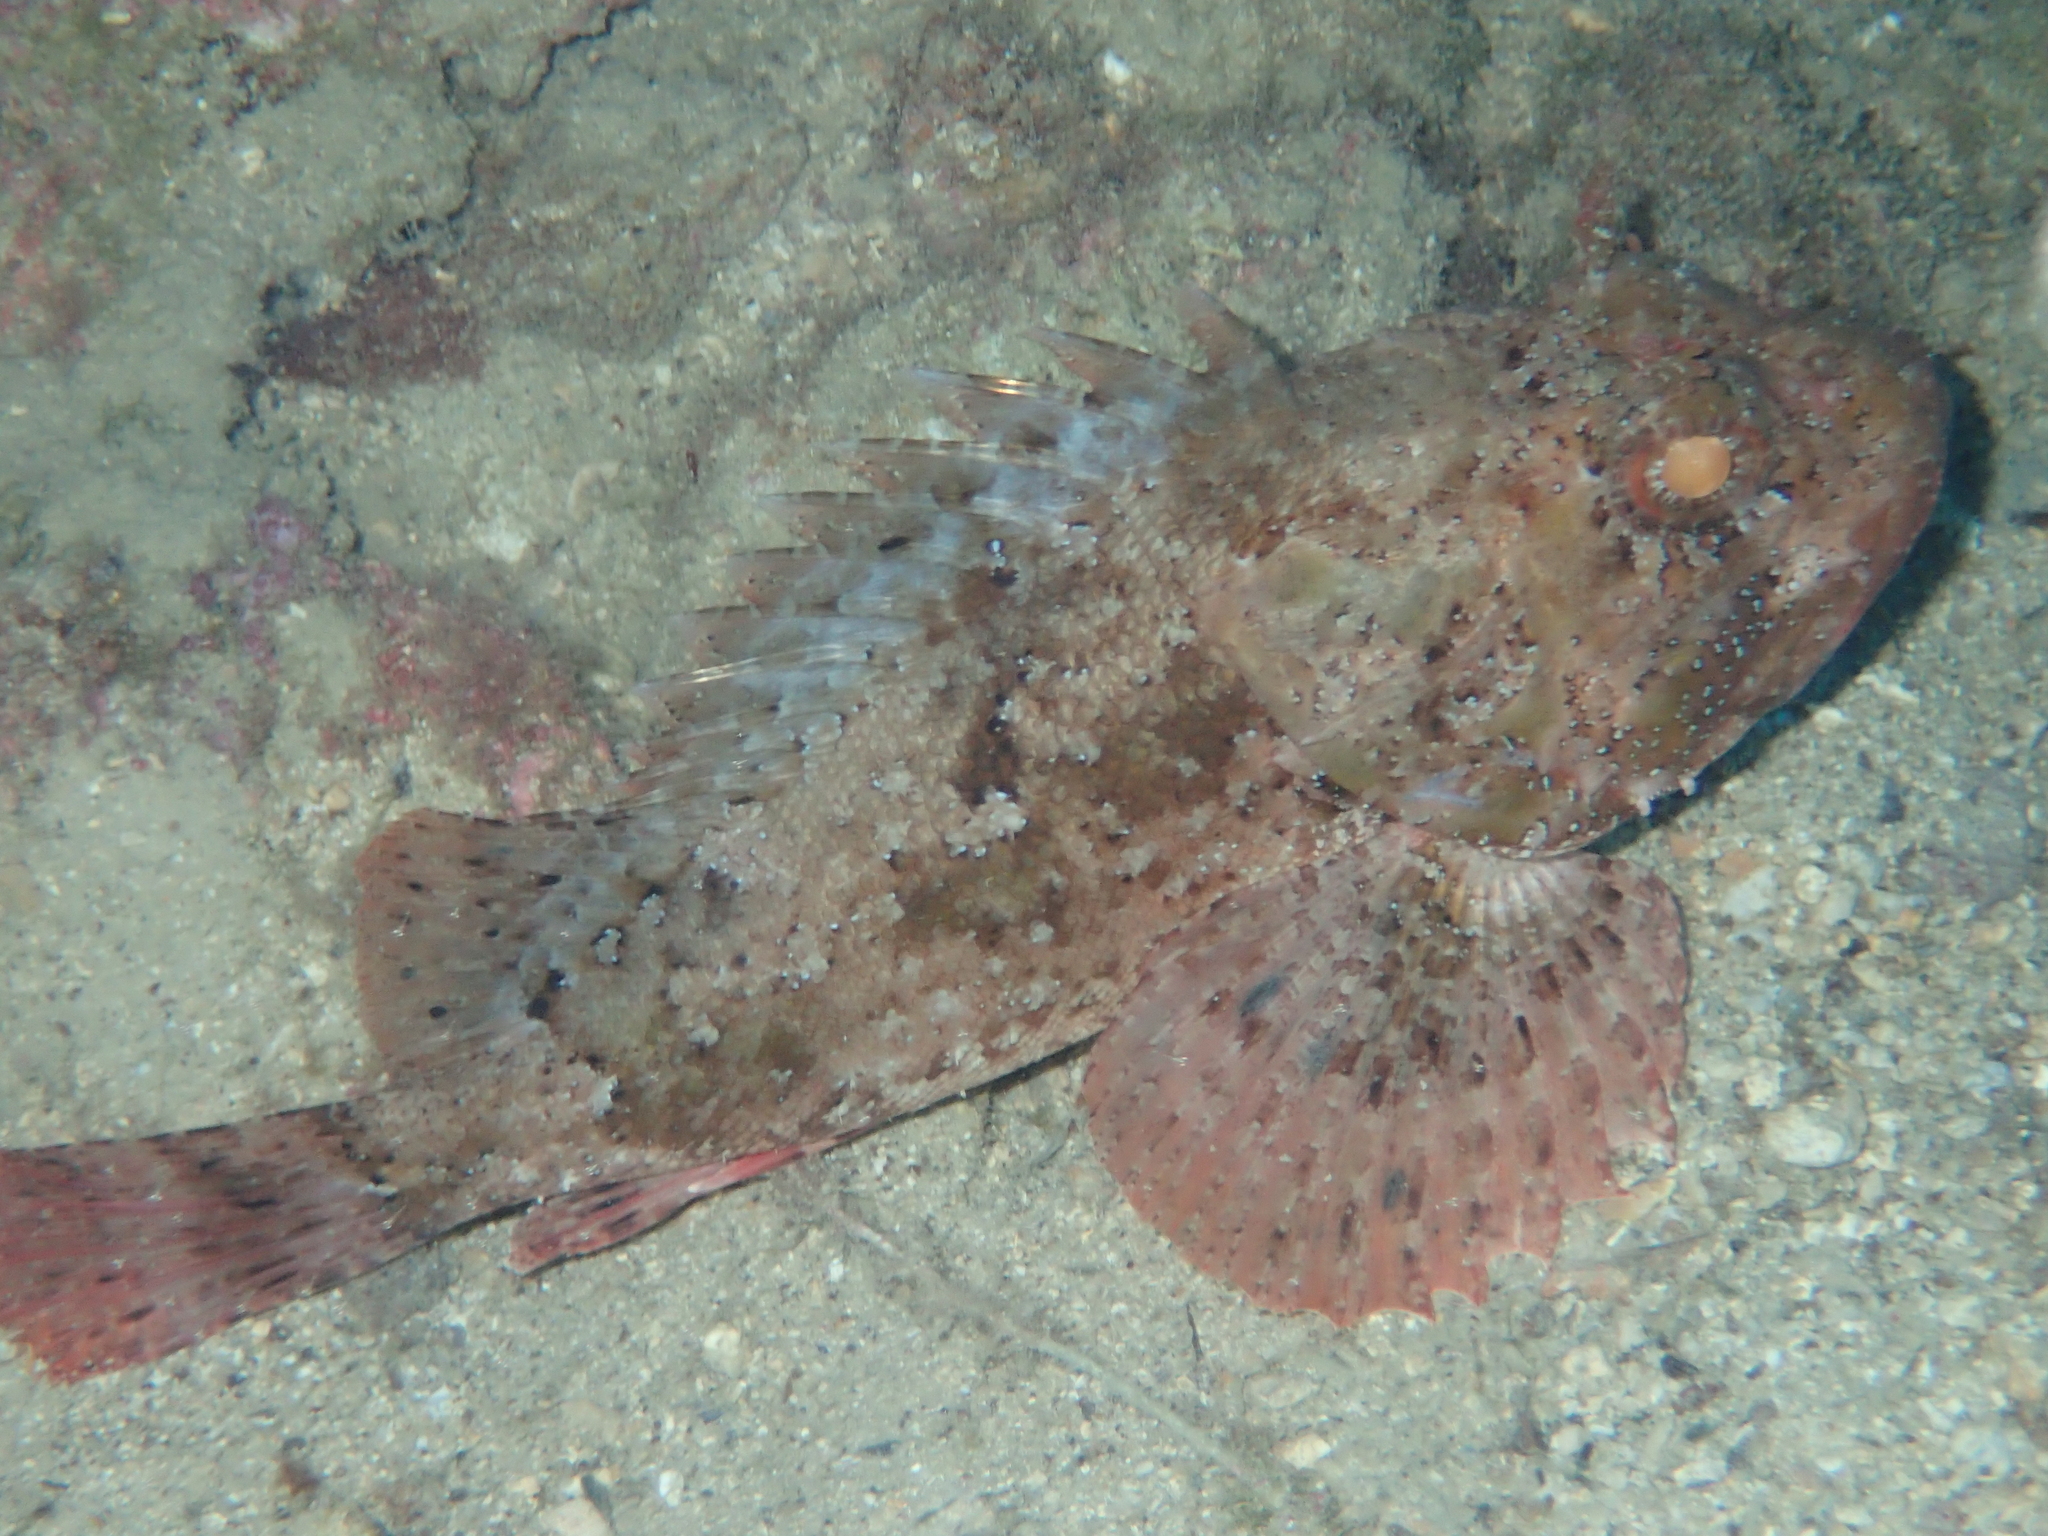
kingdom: Animalia
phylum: Chordata
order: Scorpaeniformes
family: Scorpaenidae
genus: Scorpaena
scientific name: Scorpaena porcus
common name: Black scorpionfish
